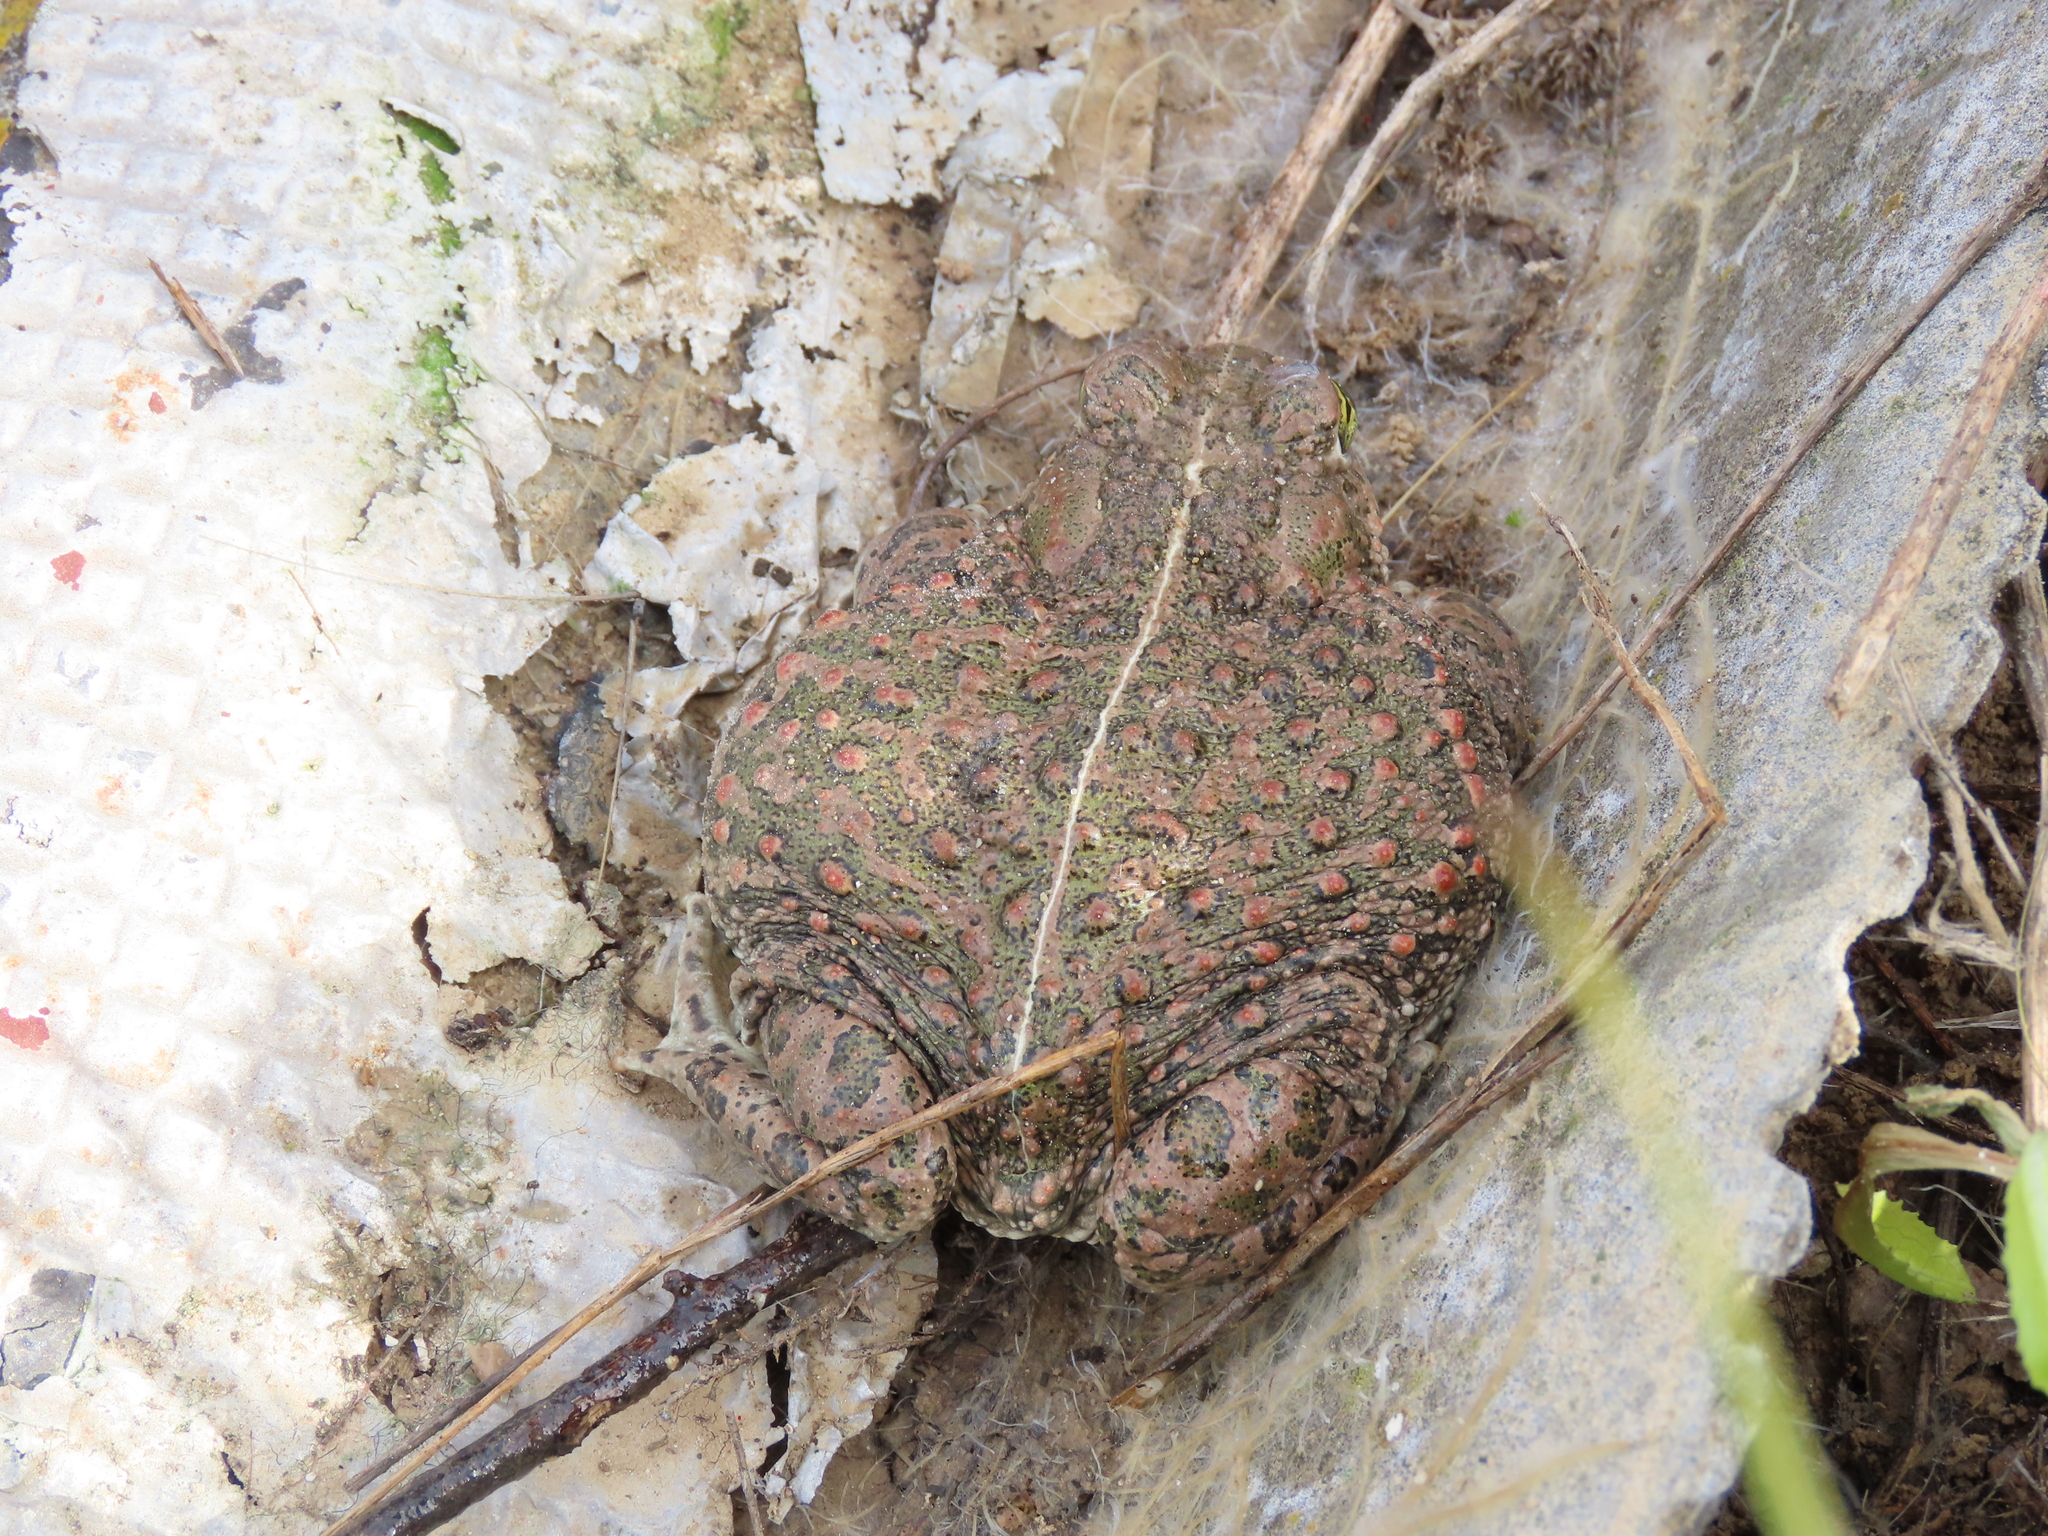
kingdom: Animalia
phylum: Chordata
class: Amphibia
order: Anura
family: Bufonidae
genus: Epidalea
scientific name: Epidalea calamita
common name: Natterjack toad
